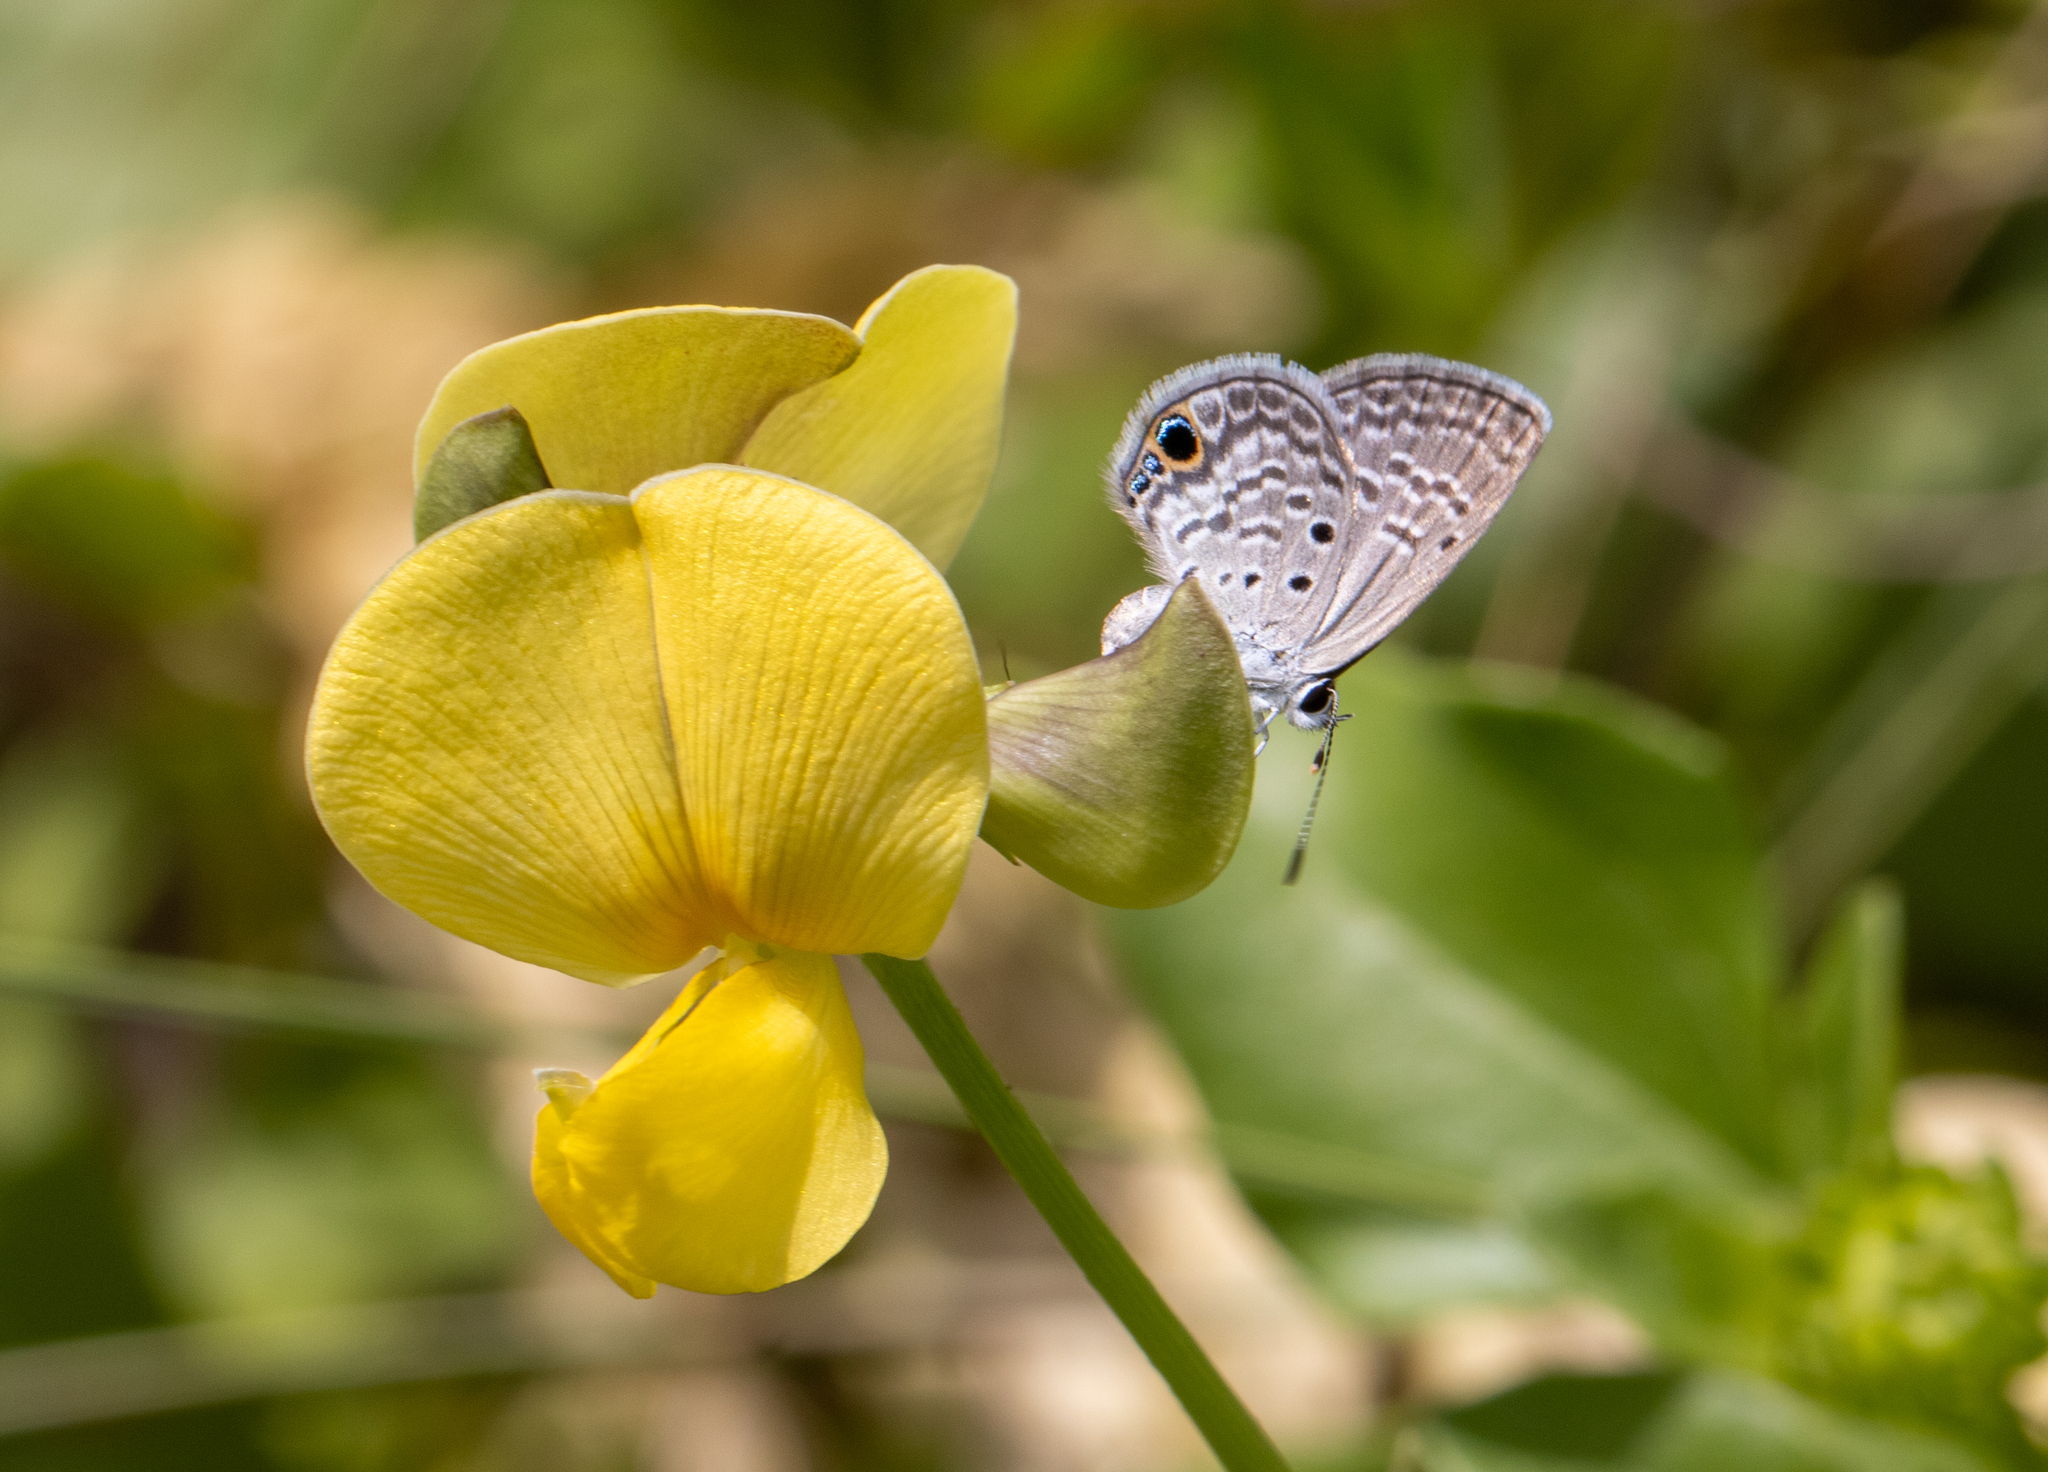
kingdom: Plantae
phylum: Tracheophyta
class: Magnoliopsida
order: Fabales
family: Fabaceae
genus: Vigna
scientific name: Vigna luteola
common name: Hairypod cowpea
